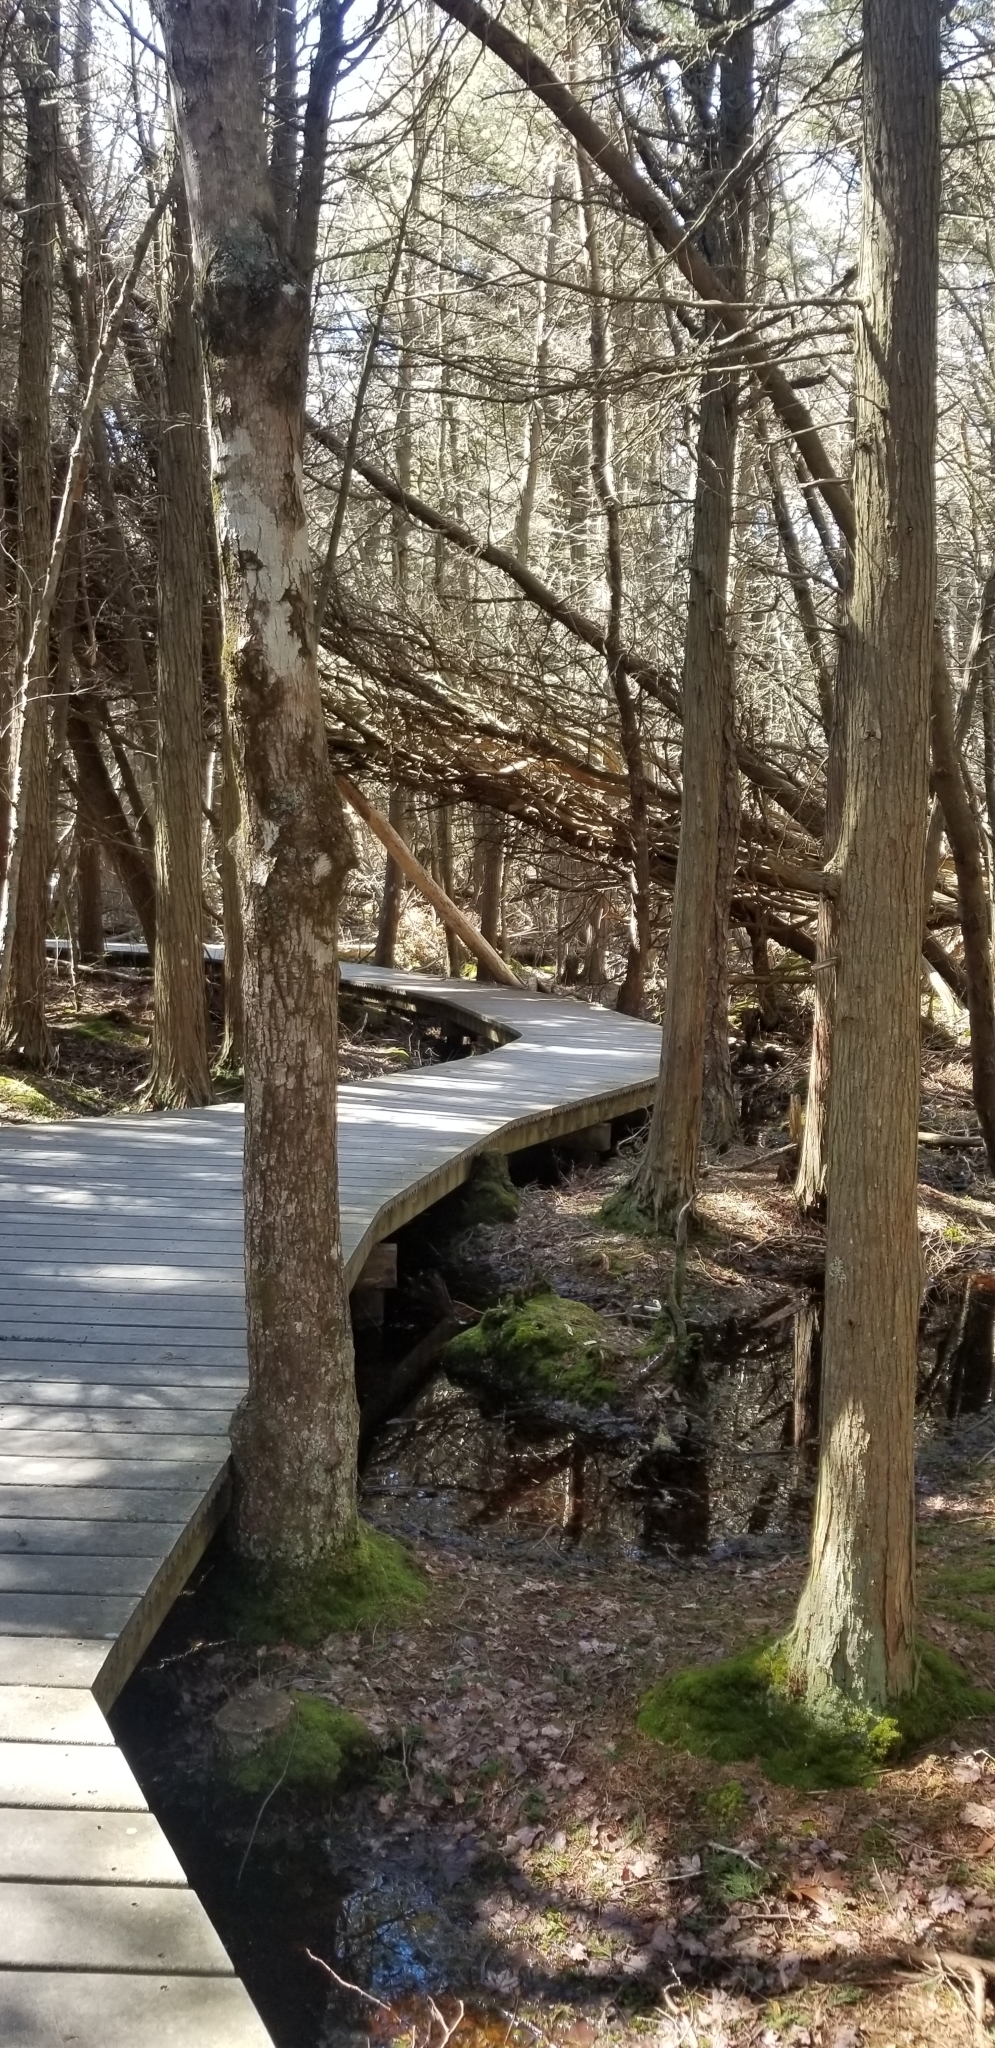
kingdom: Plantae
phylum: Tracheophyta
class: Pinopsida
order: Pinales
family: Cupressaceae
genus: Chamaecyparis
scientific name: Chamaecyparis thyoides
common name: Atlantic white cedar
